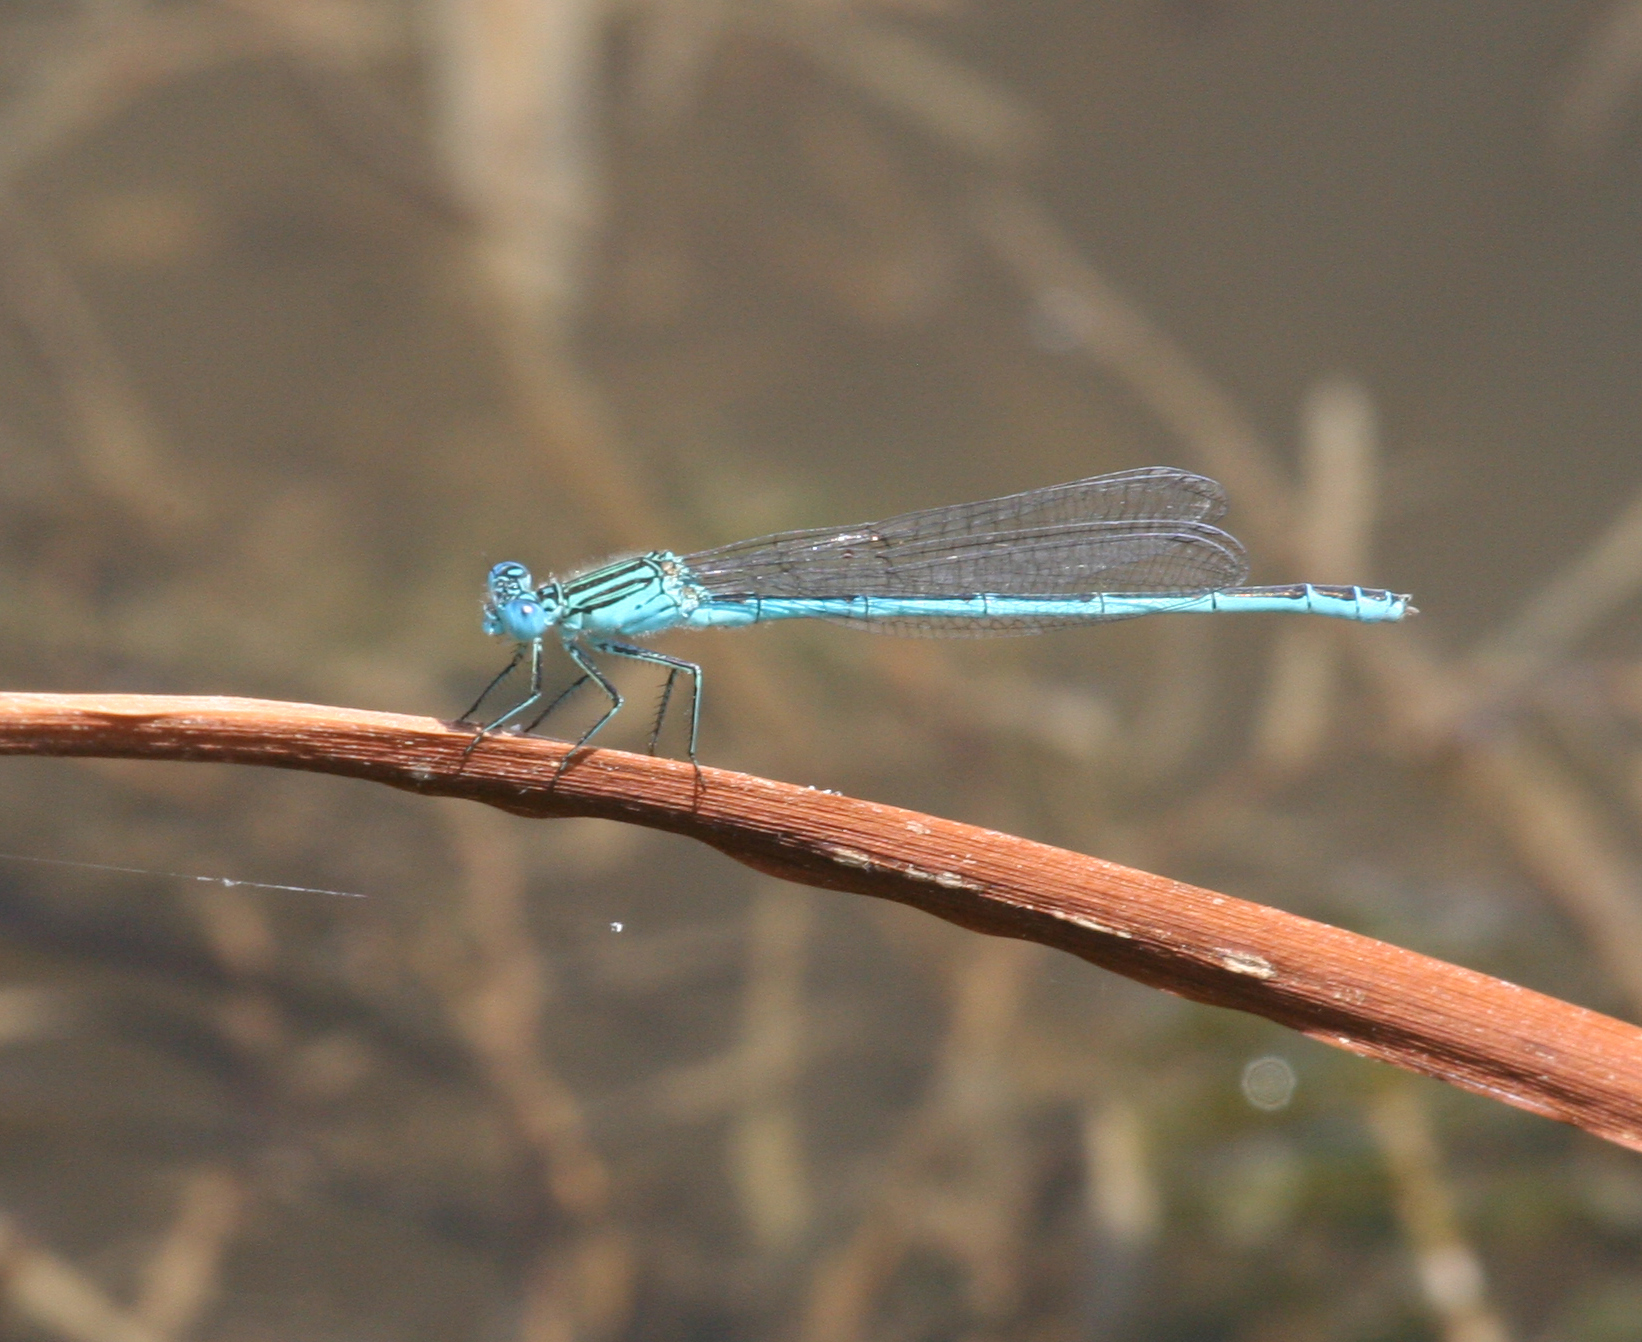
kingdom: Animalia
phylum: Arthropoda
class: Insecta
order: Odonata
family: Coenagrionidae
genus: Paracercion
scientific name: Paracercion plagiosum
